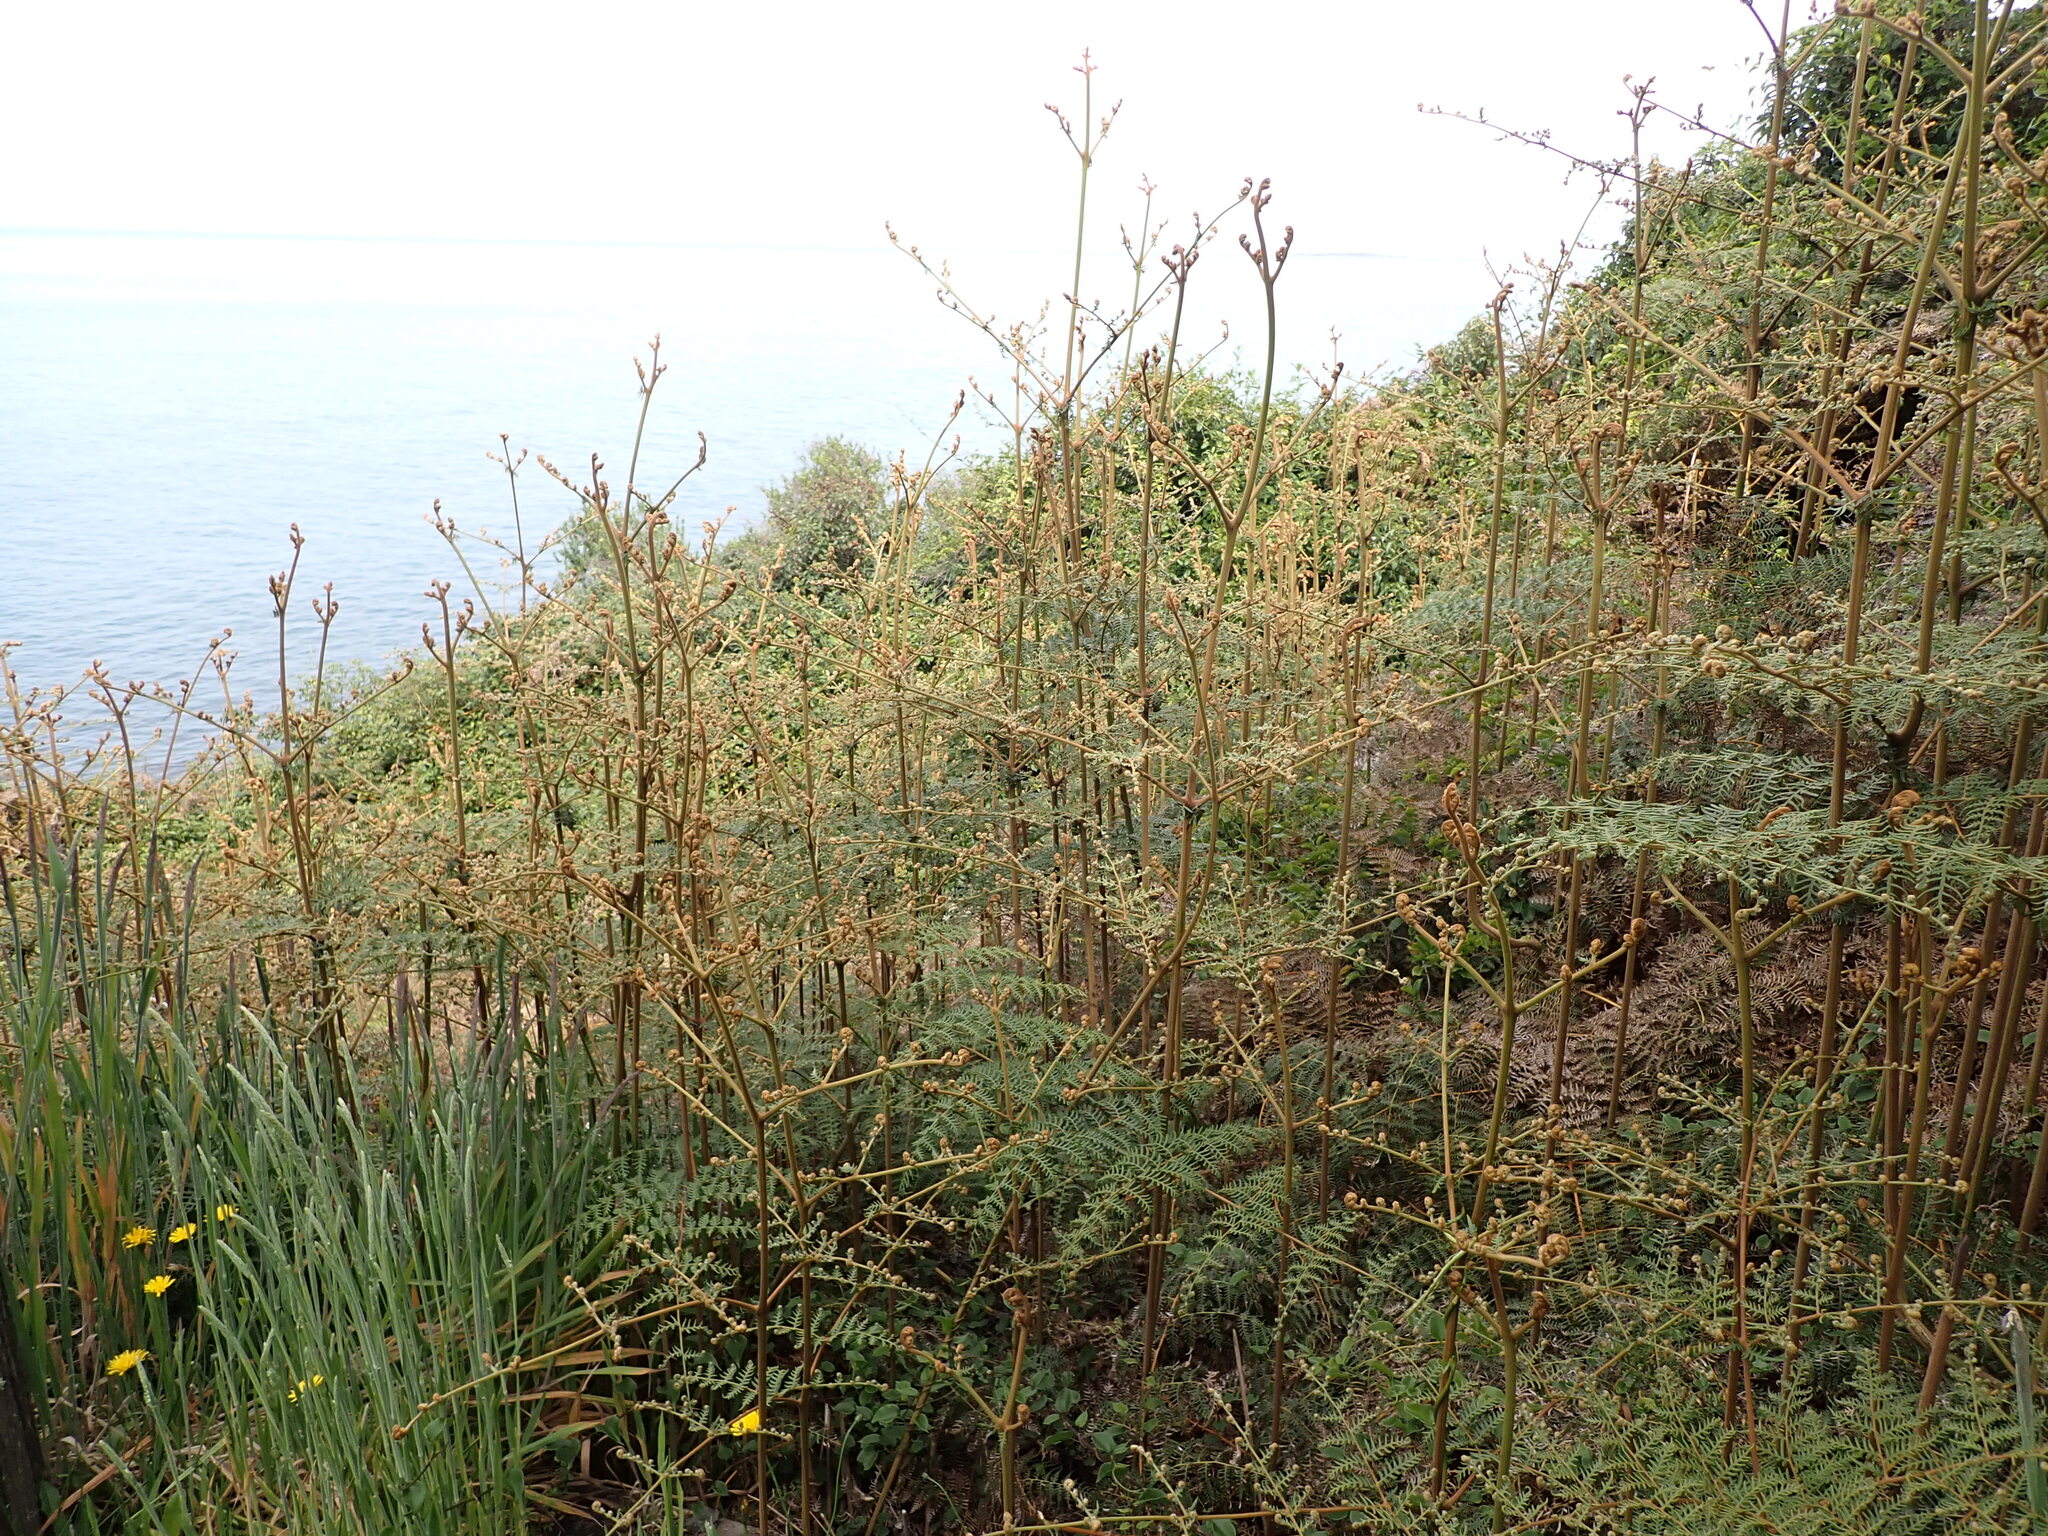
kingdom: Plantae
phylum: Tracheophyta
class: Polypodiopsida
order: Polypodiales
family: Dennstaedtiaceae
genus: Pteridium
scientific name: Pteridium esculentum
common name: Bracken fern
